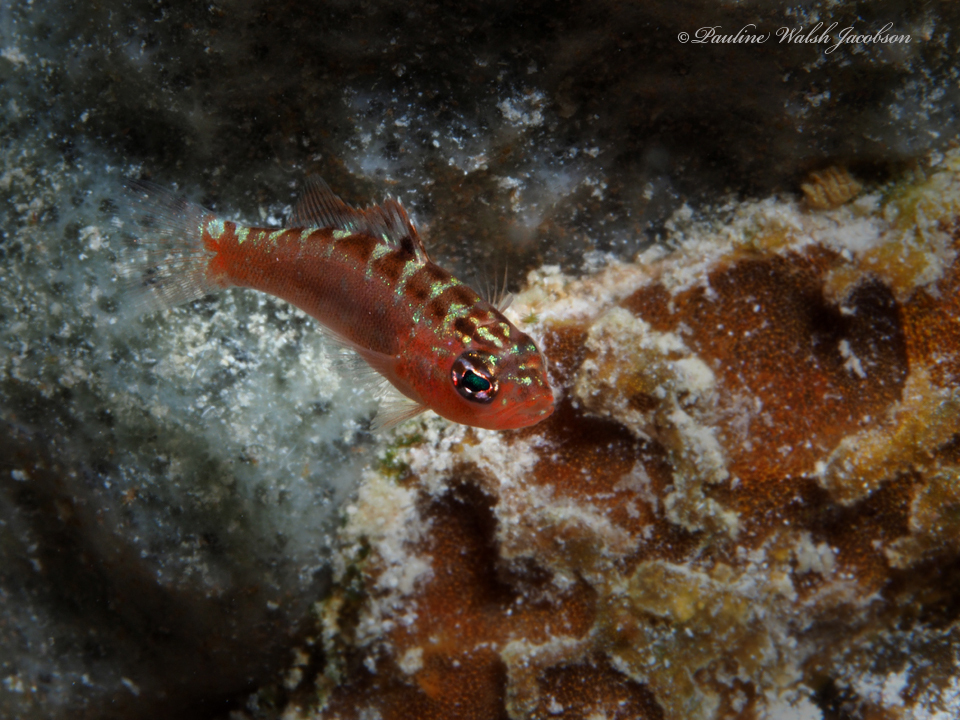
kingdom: Animalia
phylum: Chordata
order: Perciformes
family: Serranidae
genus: Serranus
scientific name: Serranus tortugarum
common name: Chalk bass
